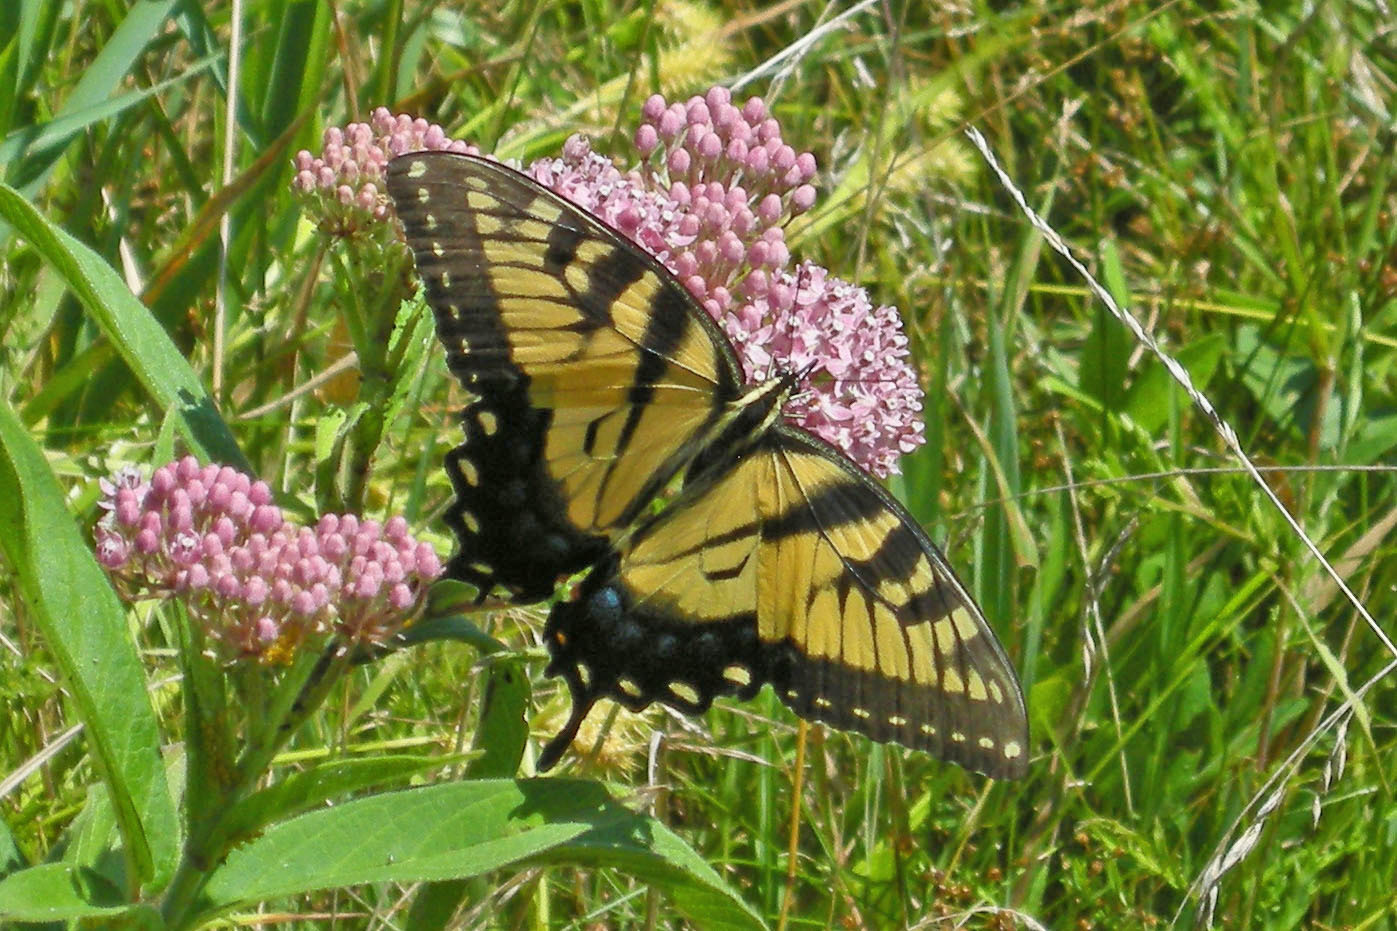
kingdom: Animalia
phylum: Arthropoda
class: Insecta
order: Lepidoptera
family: Papilionidae
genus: Papilio
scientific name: Papilio glaucus
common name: Tiger swallowtail
